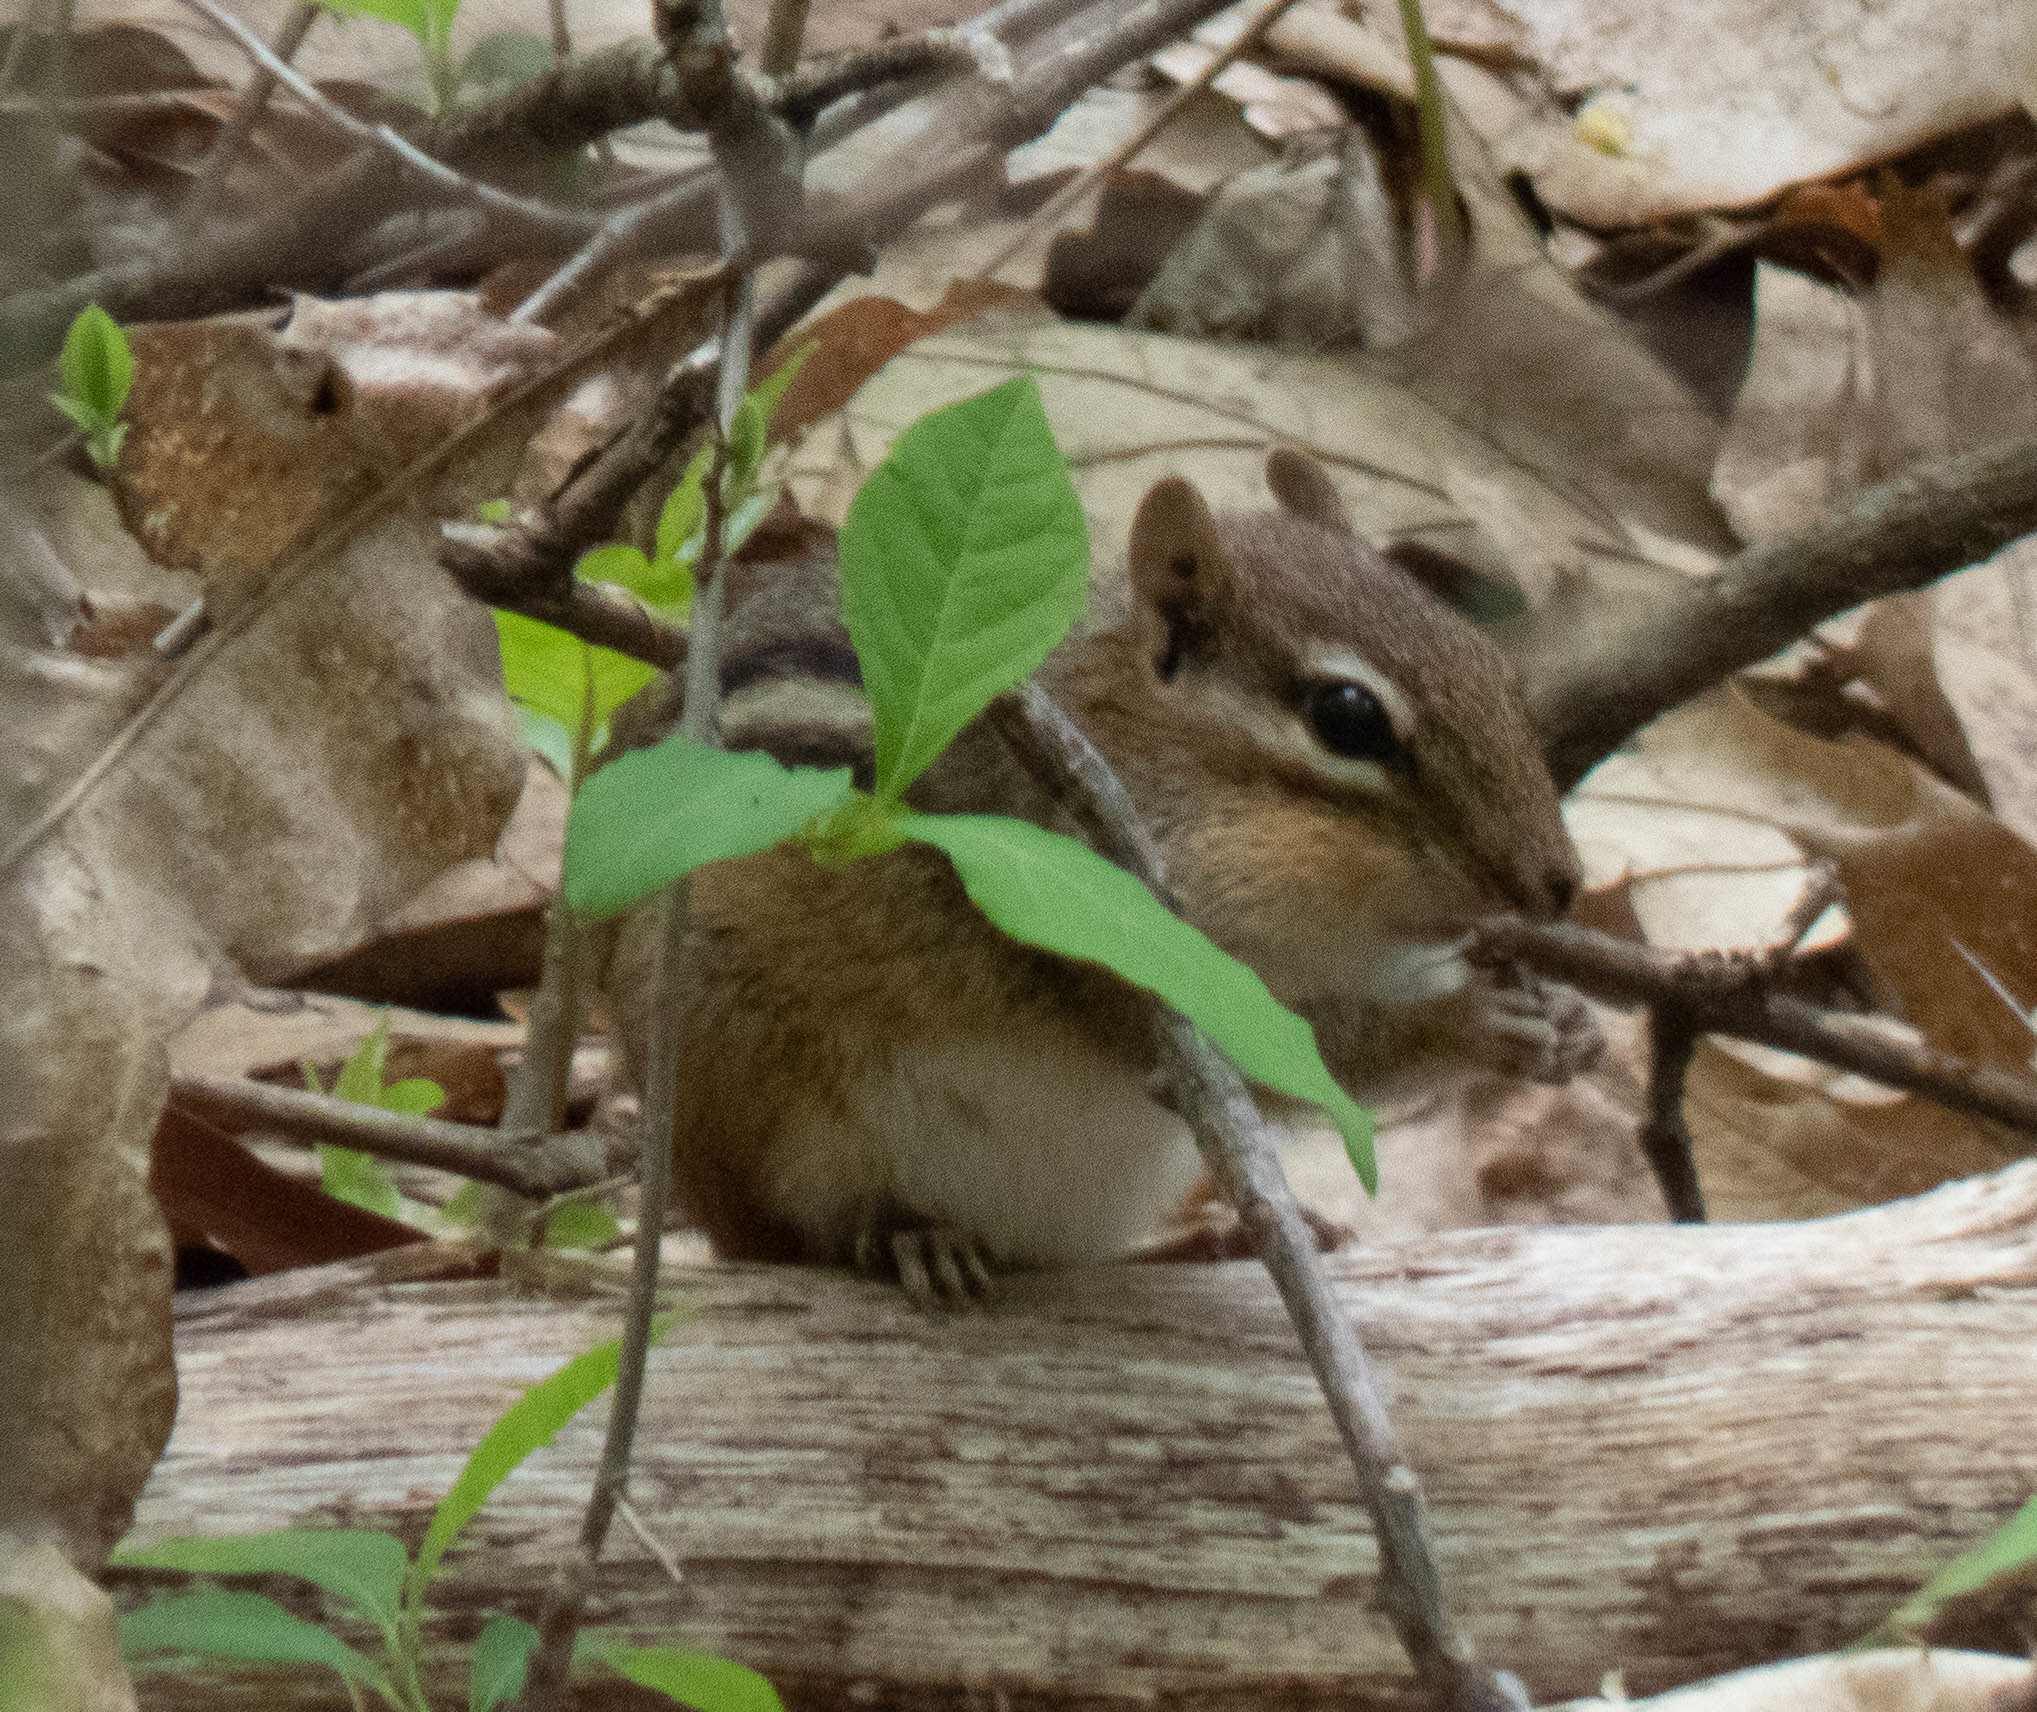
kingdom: Animalia
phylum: Chordata
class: Mammalia
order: Rodentia
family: Sciuridae
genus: Tamias
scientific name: Tamias striatus
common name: Eastern chipmunk
